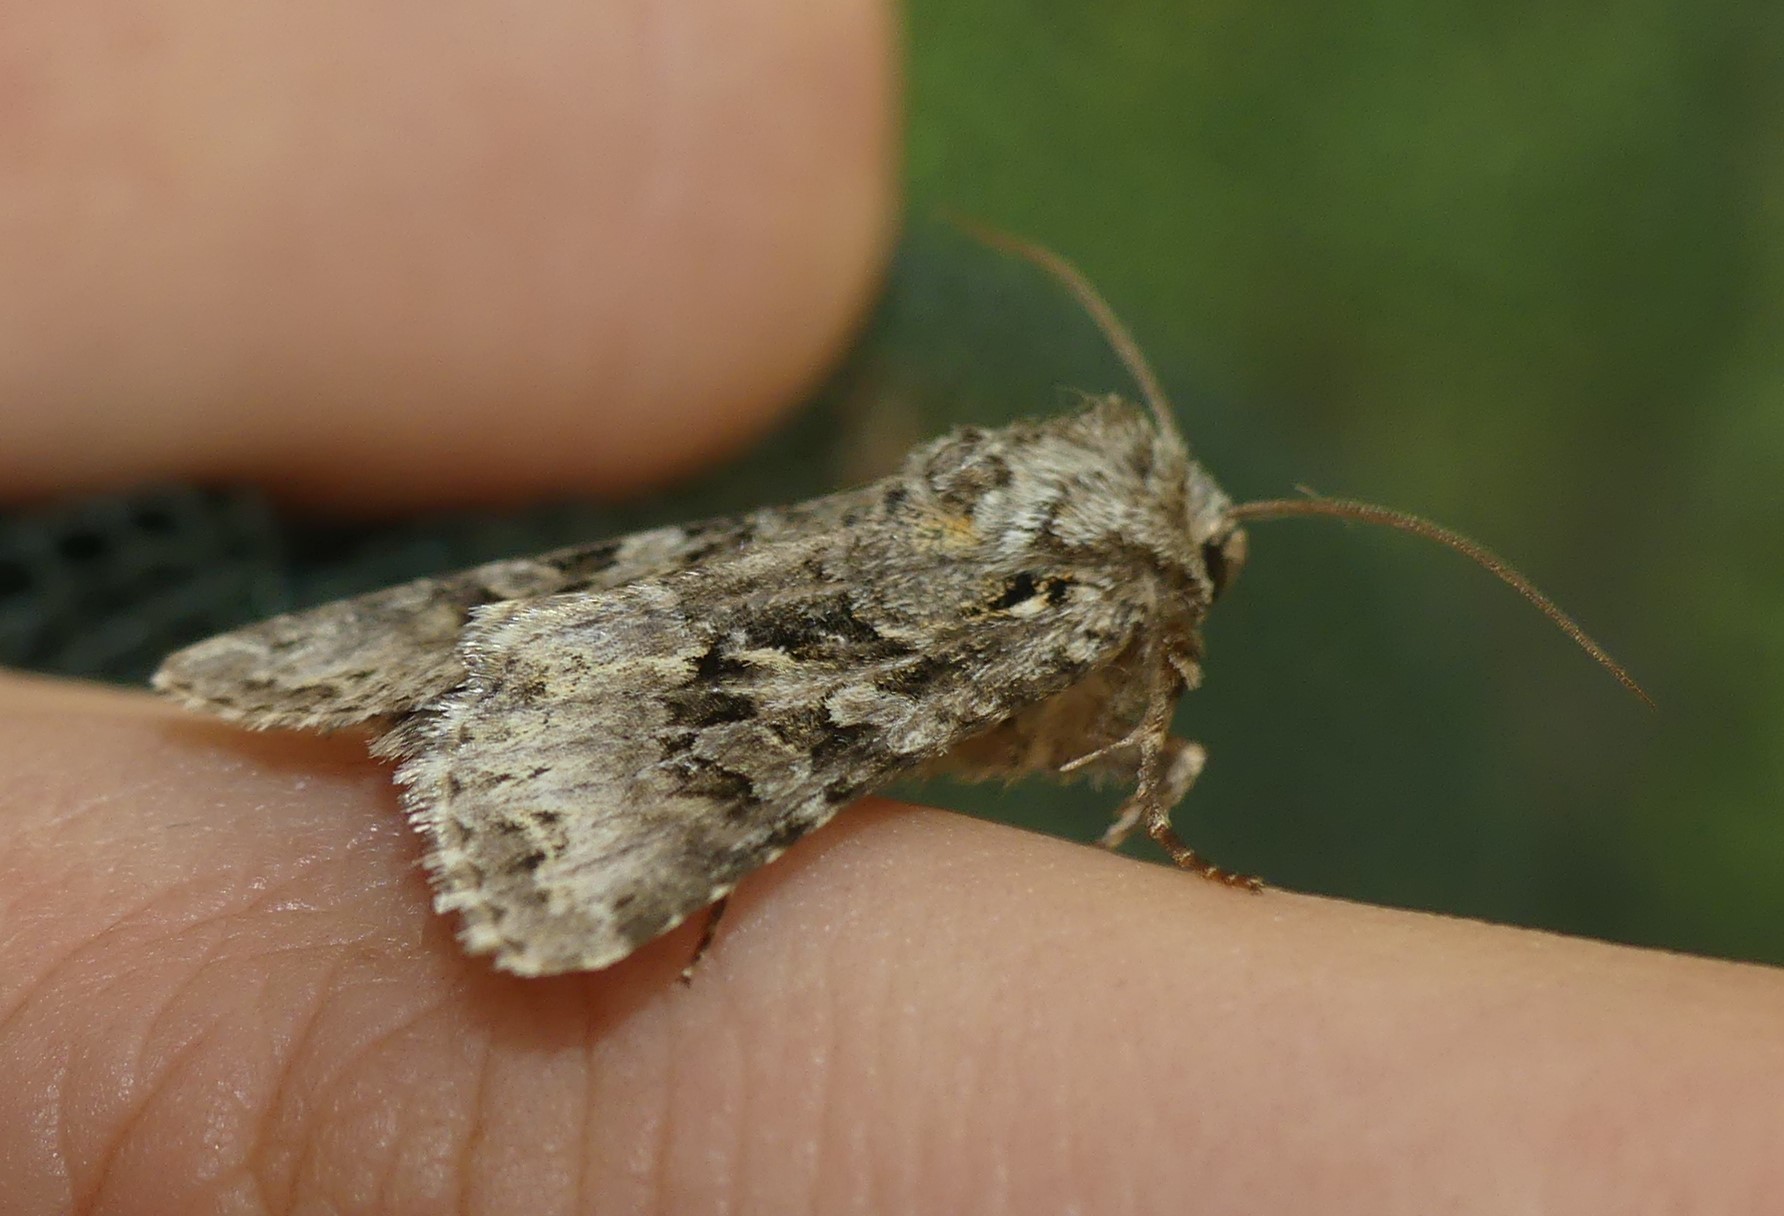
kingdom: Animalia
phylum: Arthropoda
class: Insecta
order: Lepidoptera
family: Noctuidae
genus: Hada
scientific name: Hada plebeja
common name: Shears
